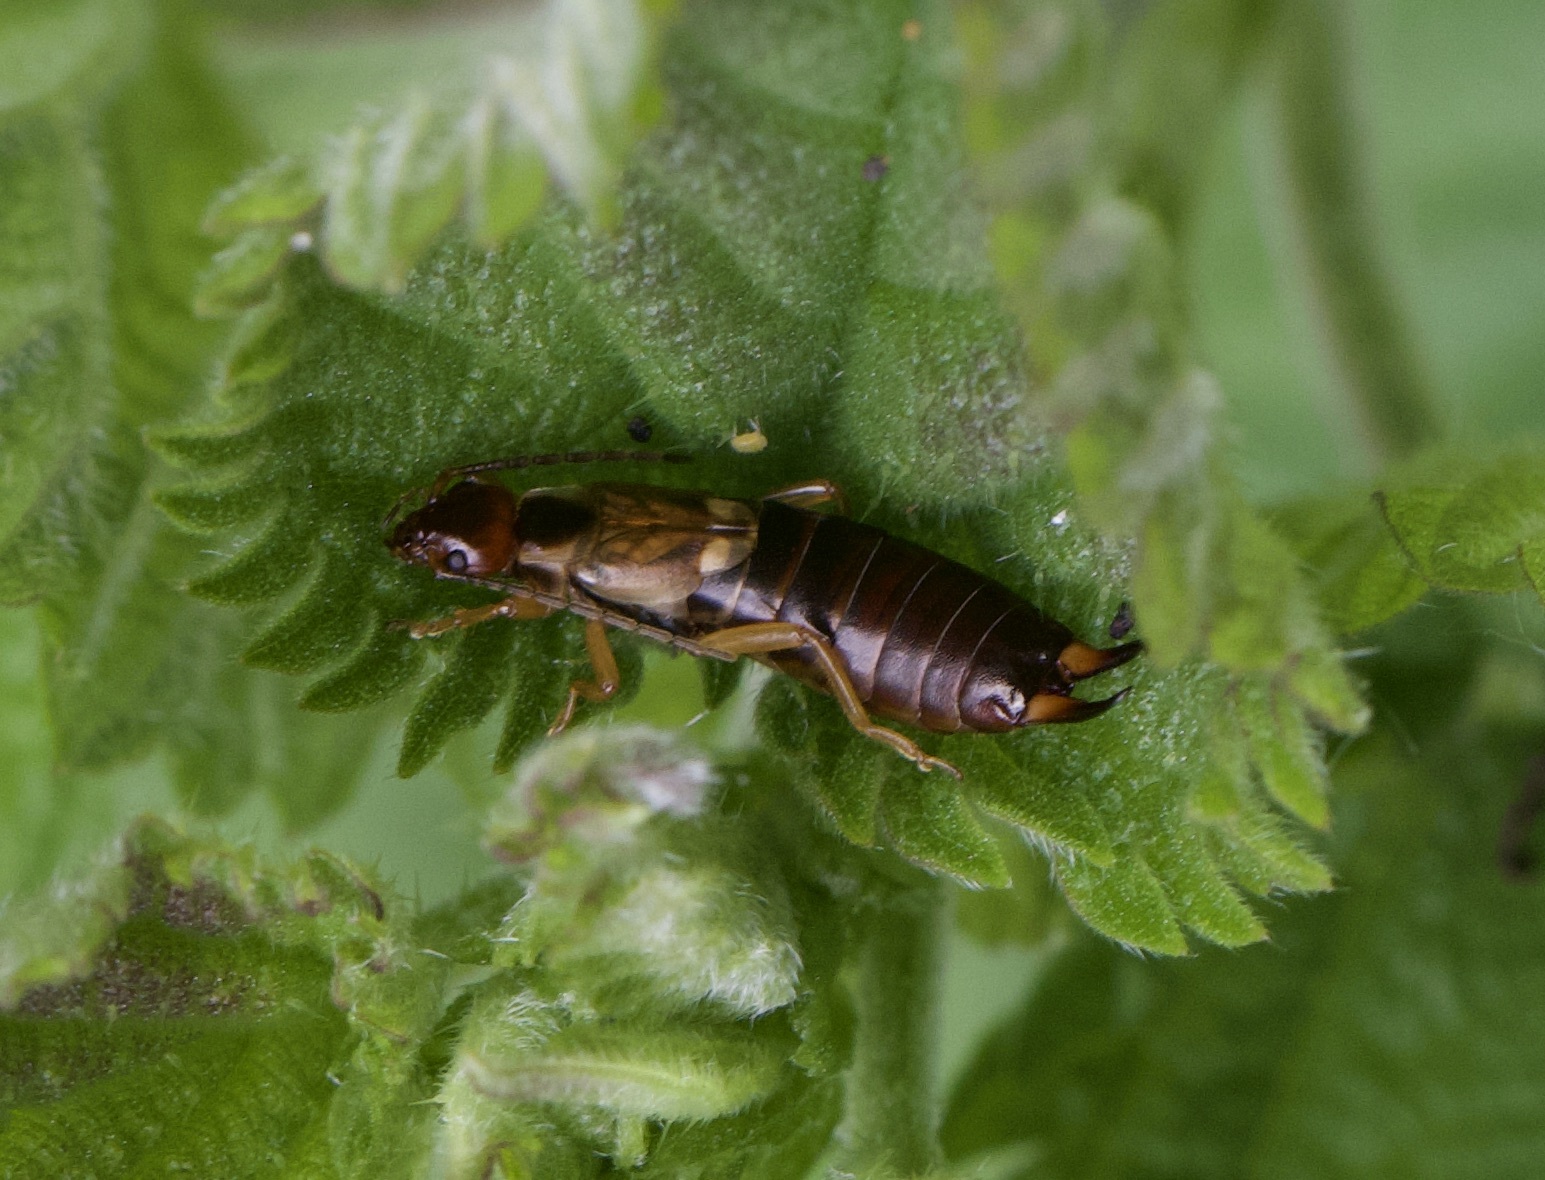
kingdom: Animalia
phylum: Arthropoda
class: Insecta
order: Dermaptera
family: Forficulidae
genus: Forficula
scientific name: Forficula
